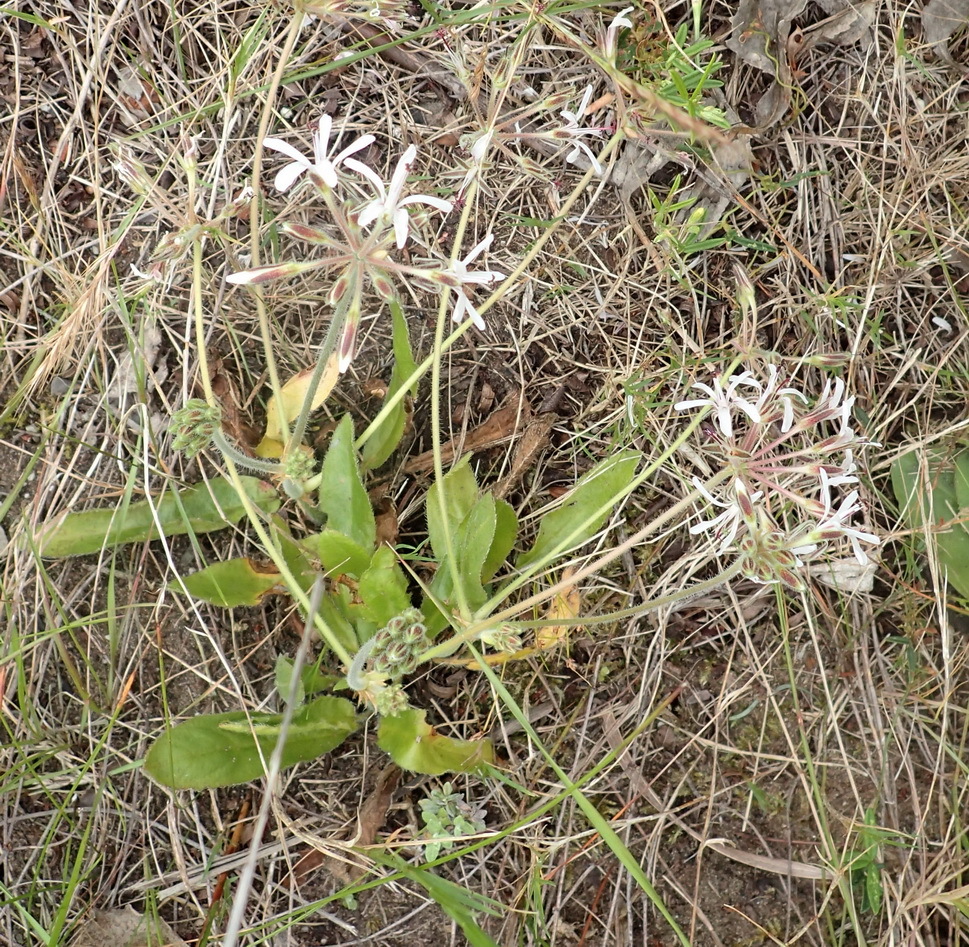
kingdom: Plantae
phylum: Tracheophyta
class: Magnoliopsida
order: Geraniales
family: Geraniaceae
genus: Pelargonium
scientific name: Pelargonium auritum
